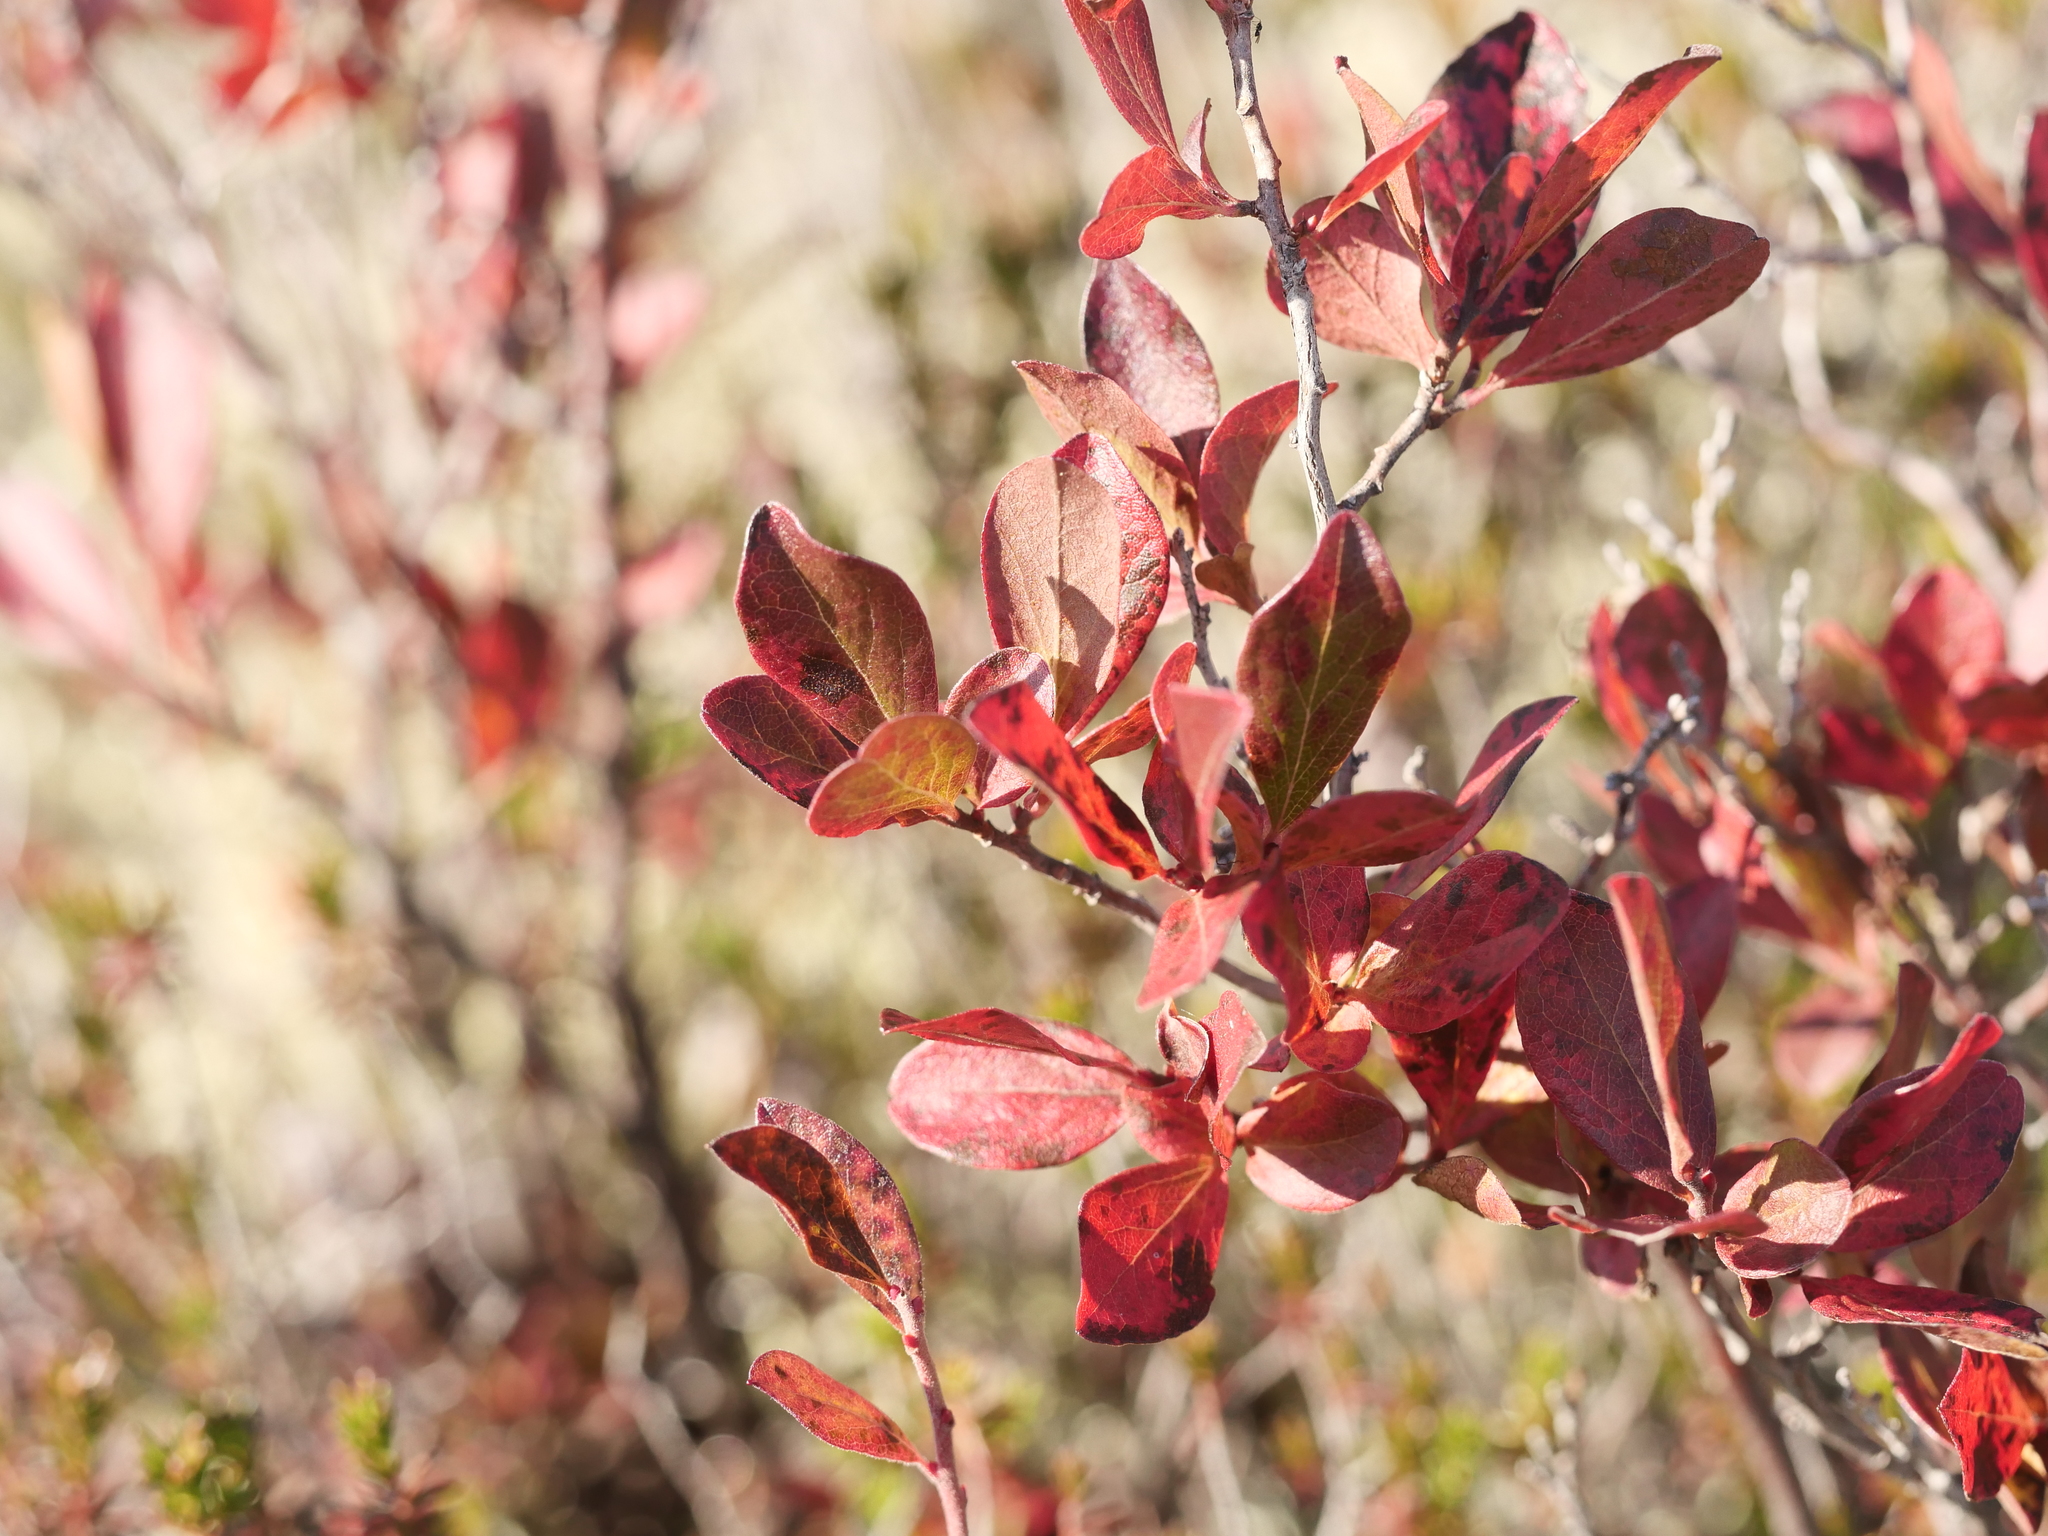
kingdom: Plantae
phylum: Tracheophyta
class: Magnoliopsida
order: Ericales
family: Ericaceae
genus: Gaylussacia
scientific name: Gaylussacia baccata
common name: Black huckleberry
